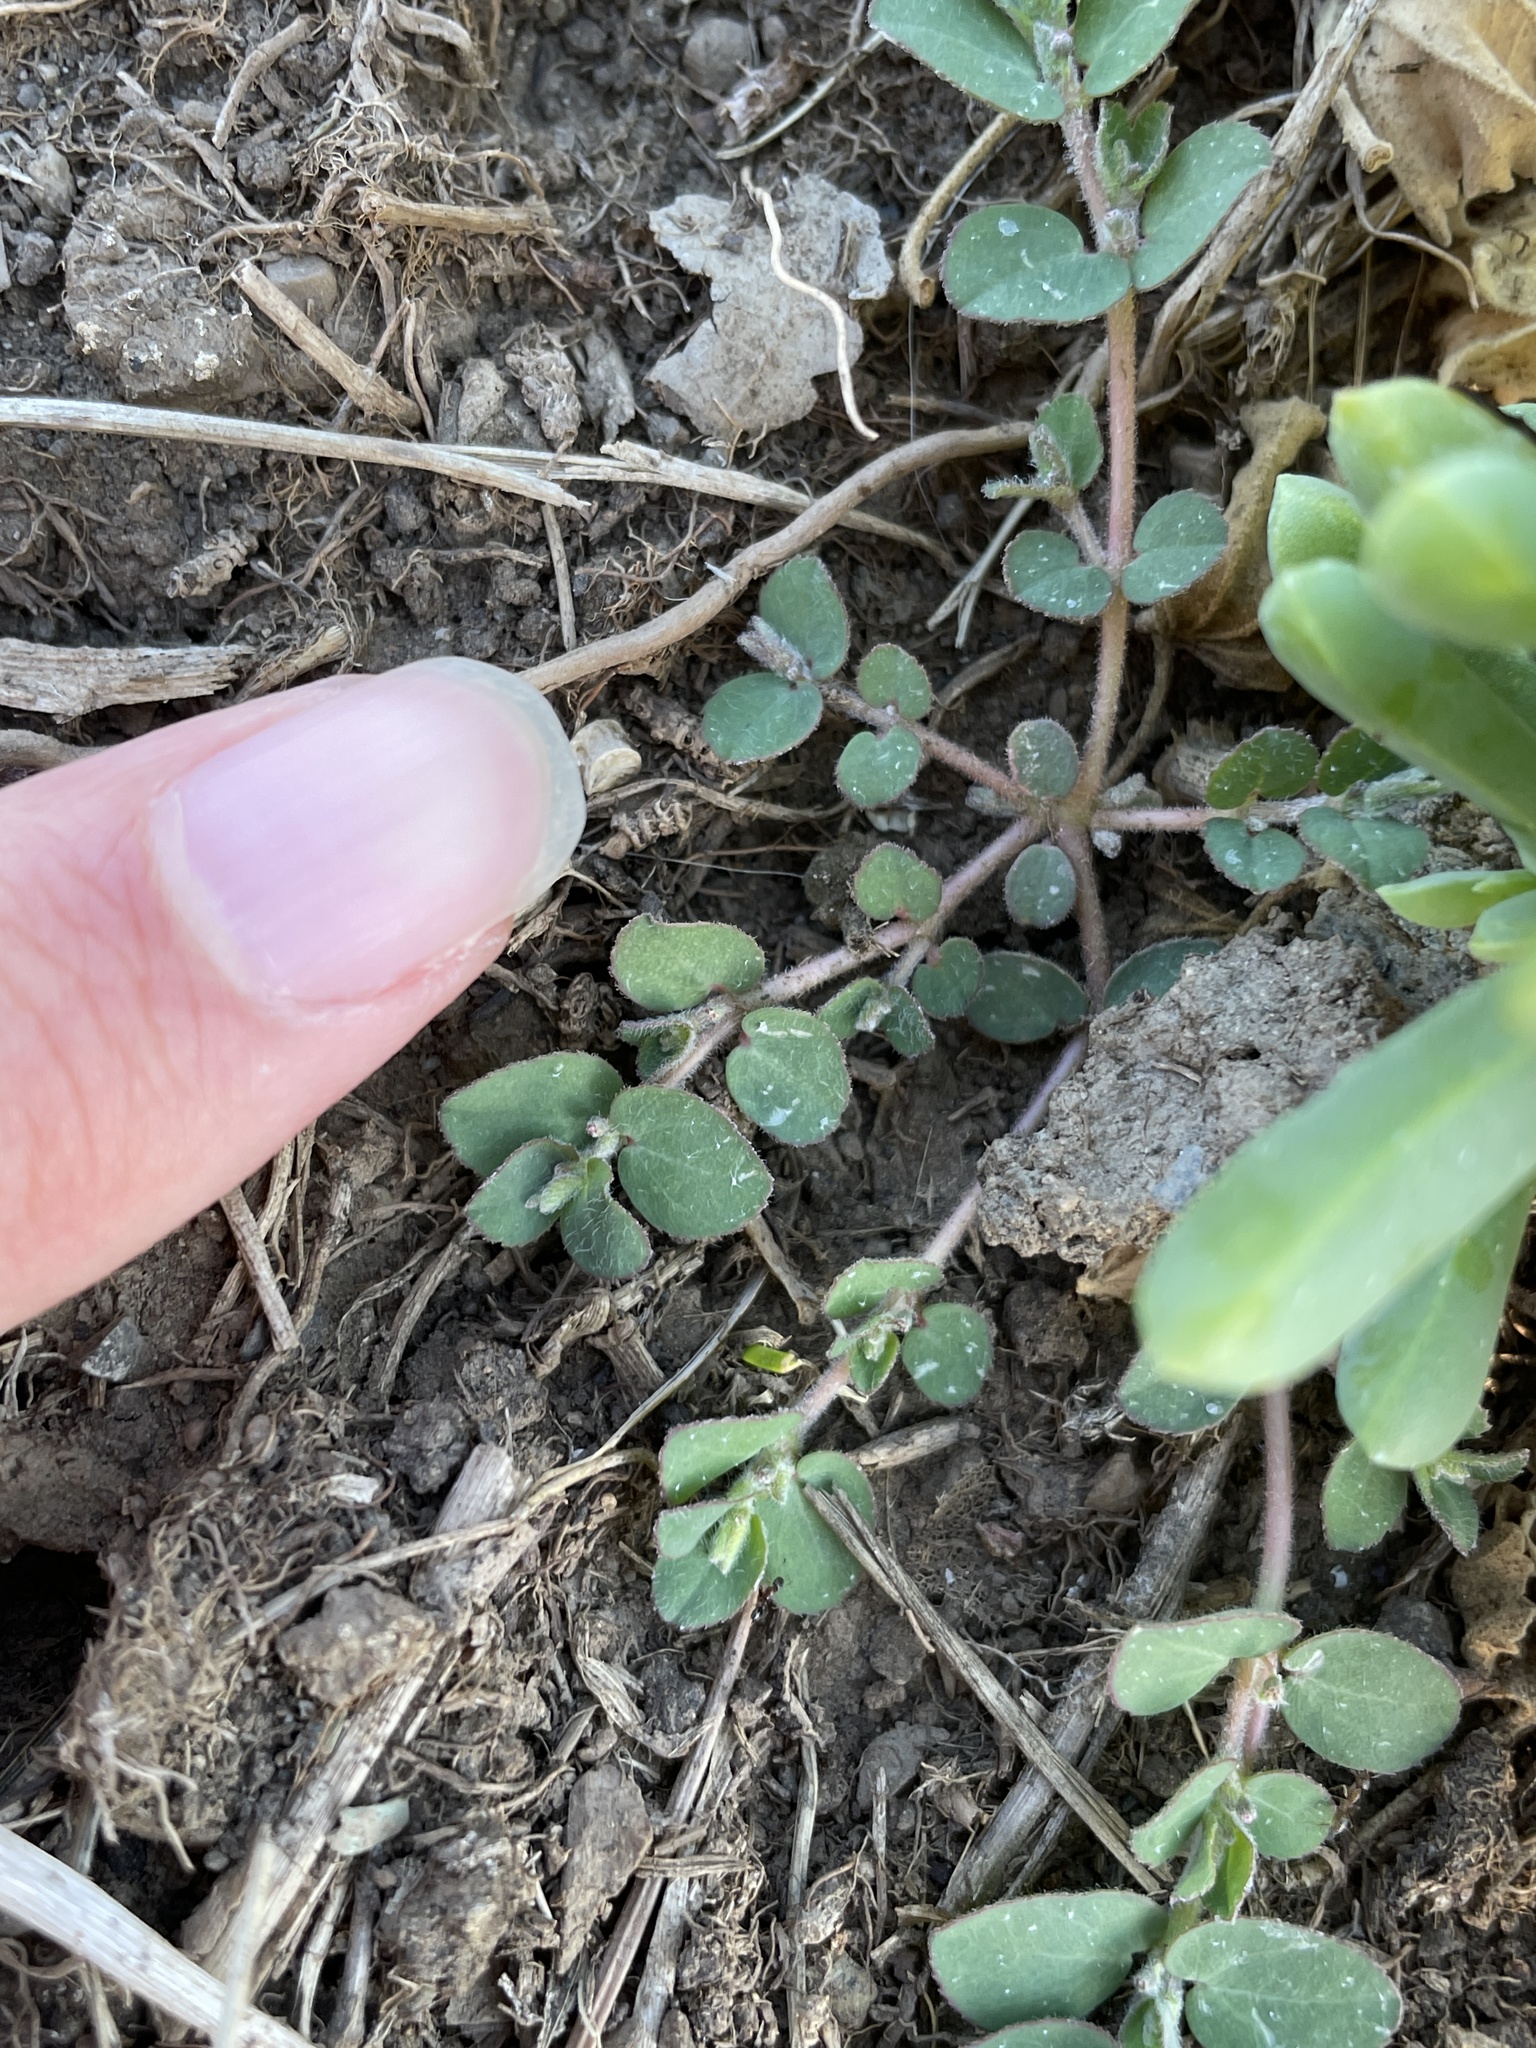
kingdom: Plantae
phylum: Tracheophyta
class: Magnoliopsida
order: Malpighiales
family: Euphorbiaceae
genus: Euphorbia
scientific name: Euphorbia prostrata
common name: Prostrate sandmat
